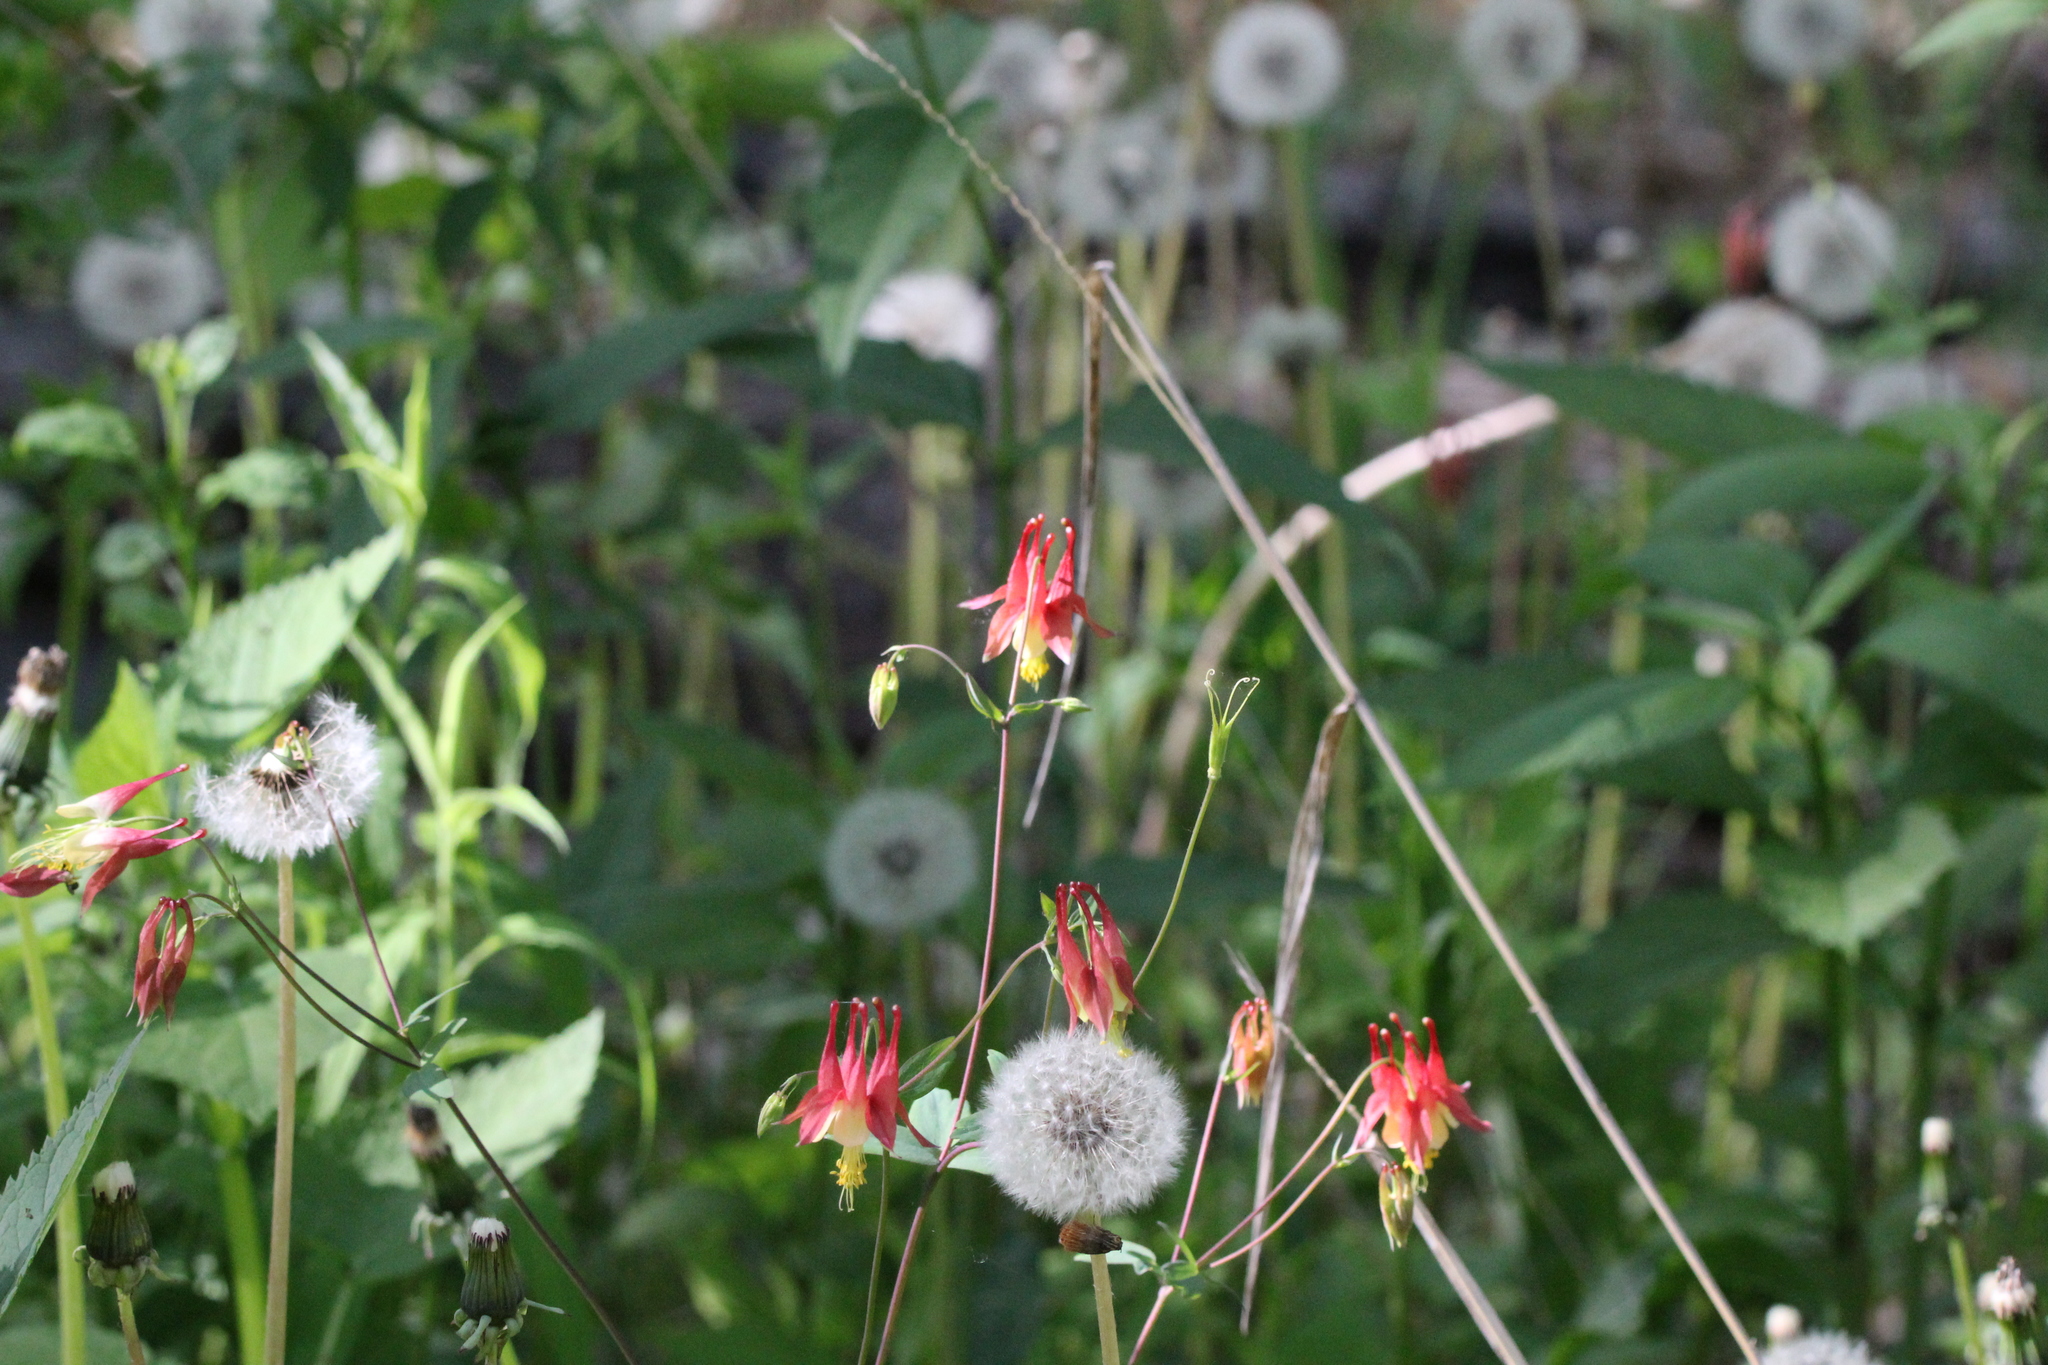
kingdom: Plantae
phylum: Tracheophyta
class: Magnoliopsida
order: Ranunculales
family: Ranunculaceae
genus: Aquilegia
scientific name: Aquilegia canadensis
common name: American columbine
